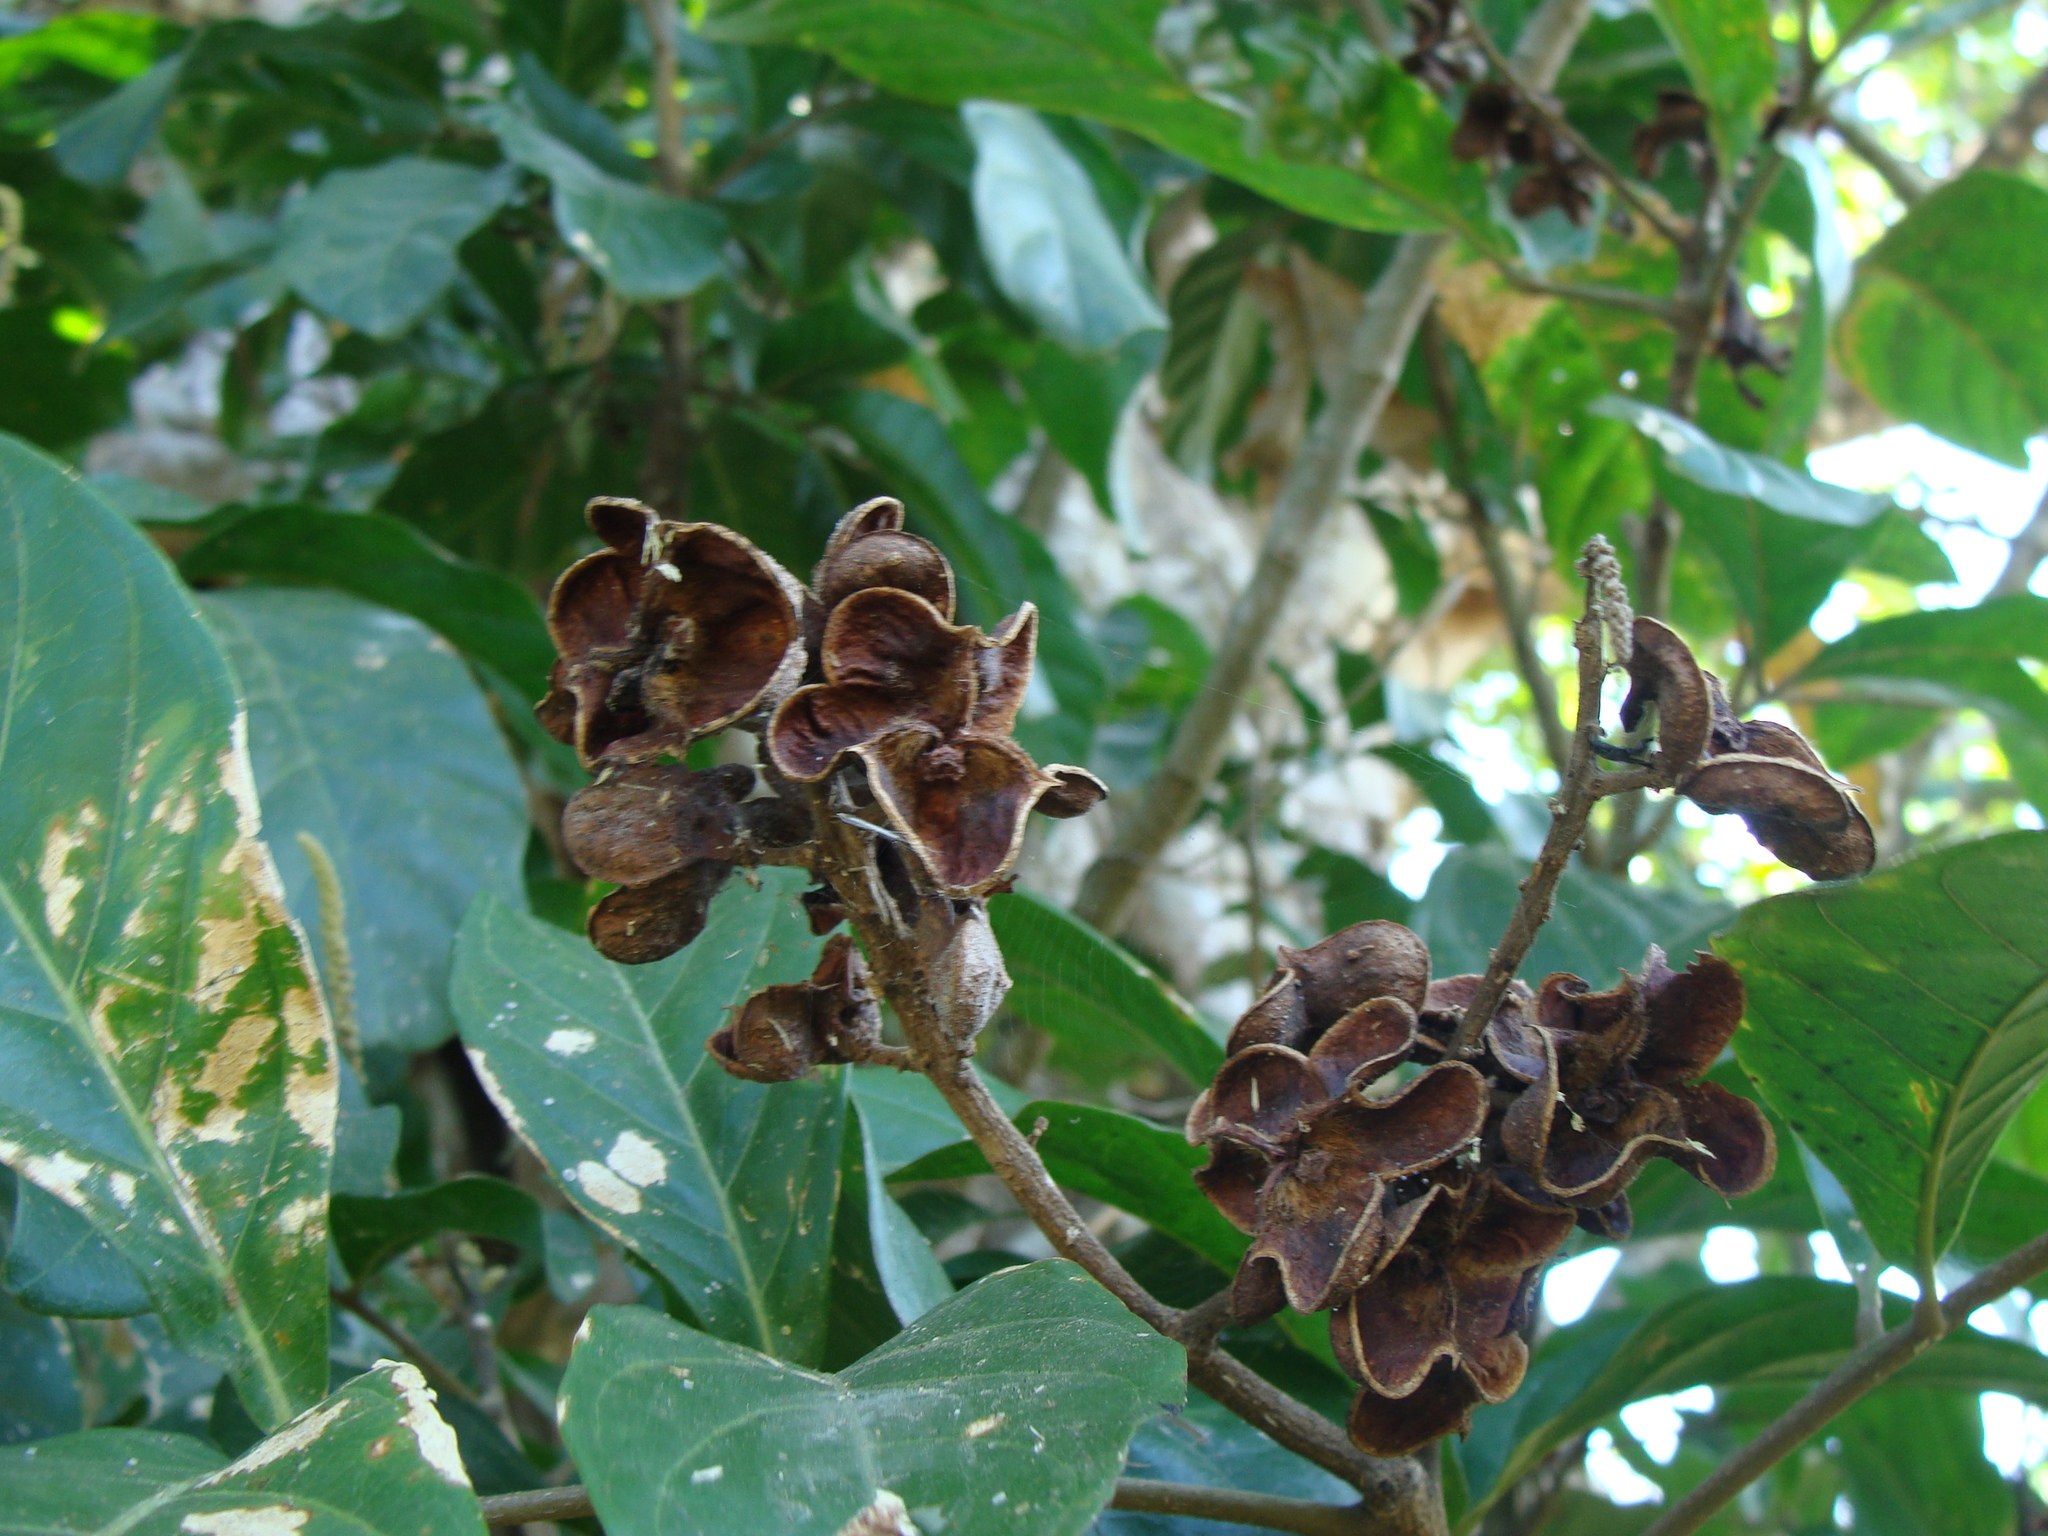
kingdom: Plantae
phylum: Tracheophyta
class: Magnoliopsida
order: Sapindales
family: Sapindaceae
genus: Matayba
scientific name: Matayba clavelligera
